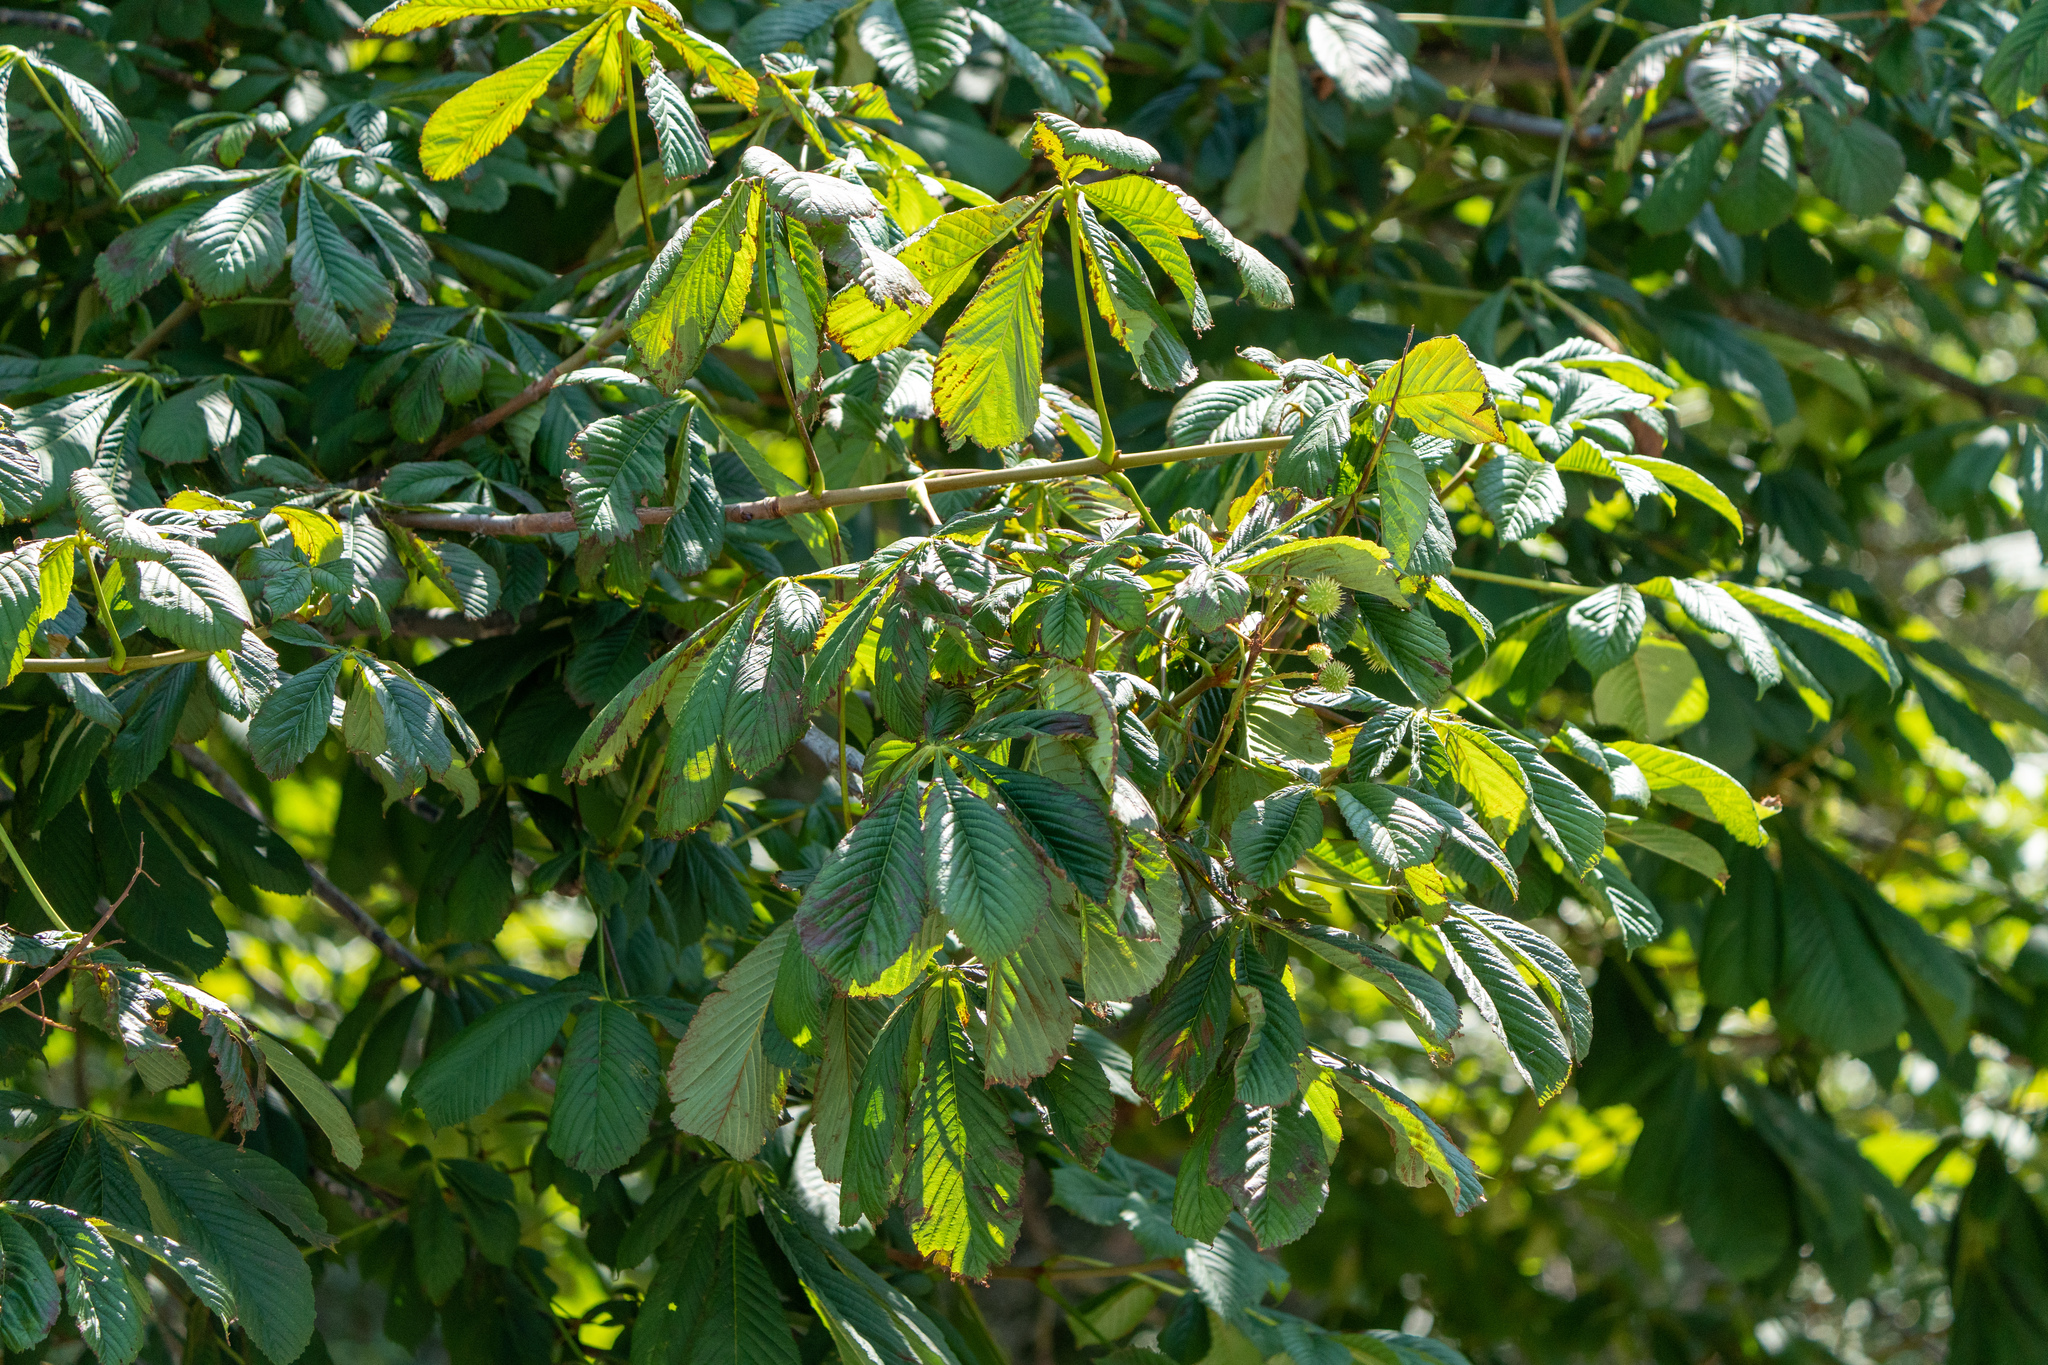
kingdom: Plantae
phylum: Tracheophyta
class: Magnoliopsida
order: Sapindales
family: Sapindaceae
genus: Aesculus
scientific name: Aesculus hippocastanum
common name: Horse-chestnut
